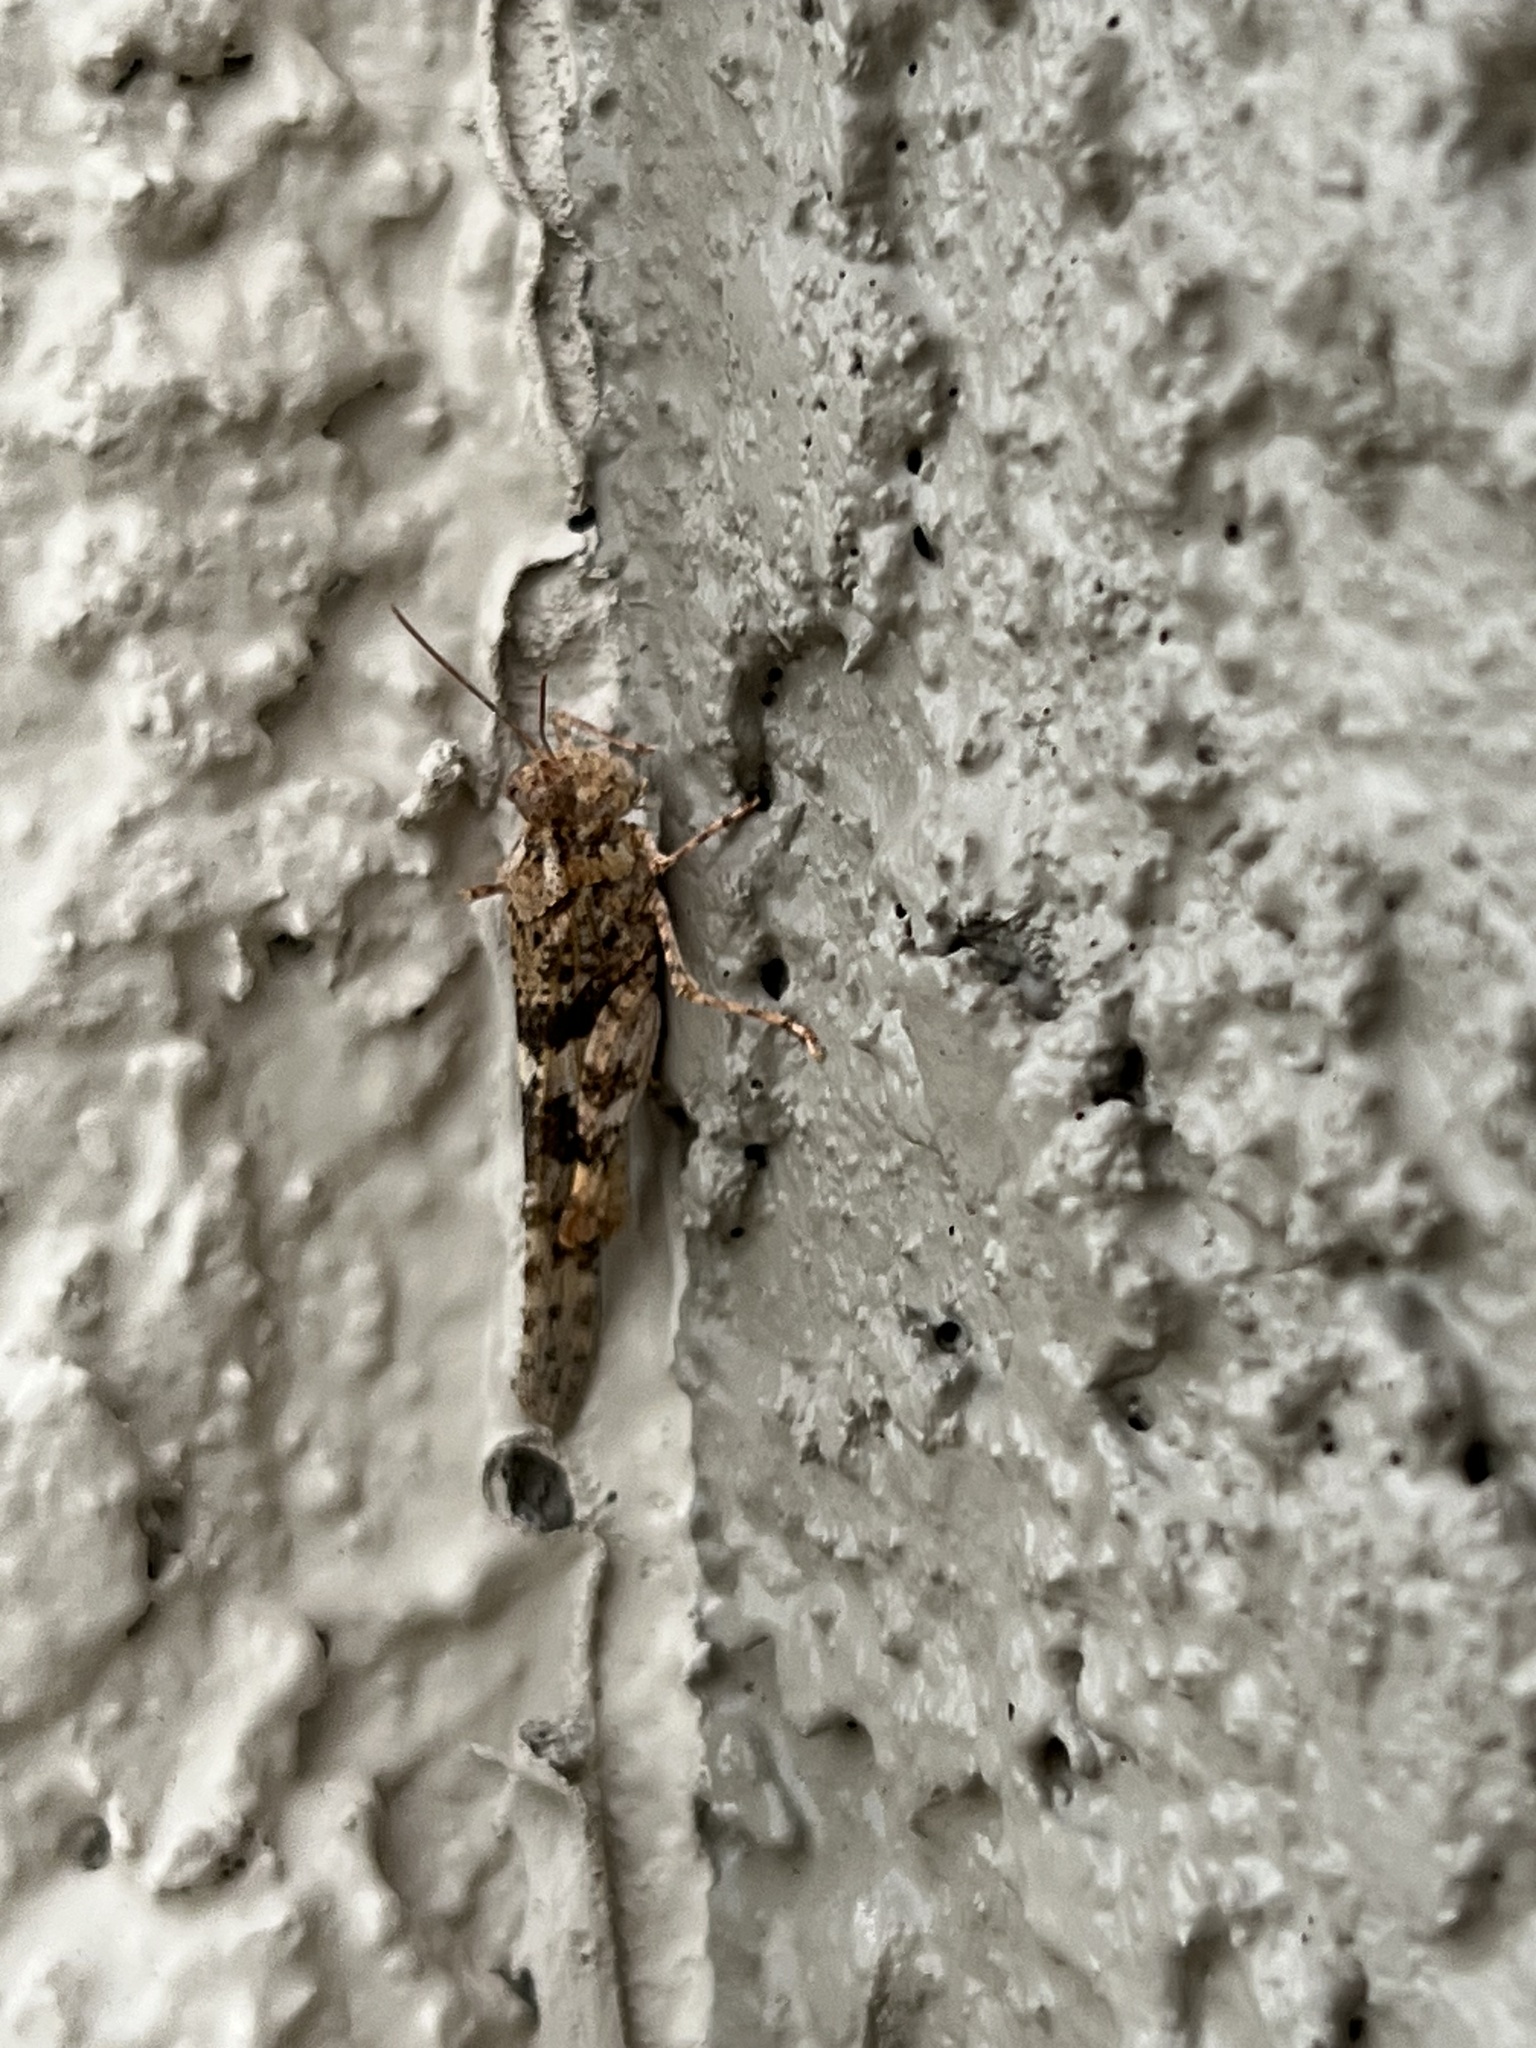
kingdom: Animalia
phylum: Arthropoda
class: Insecta
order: Orthoptera
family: Acrididae
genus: Trimerotropis
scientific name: Trimerotropis pallidipennis
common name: Pallid-winged grasshopper
